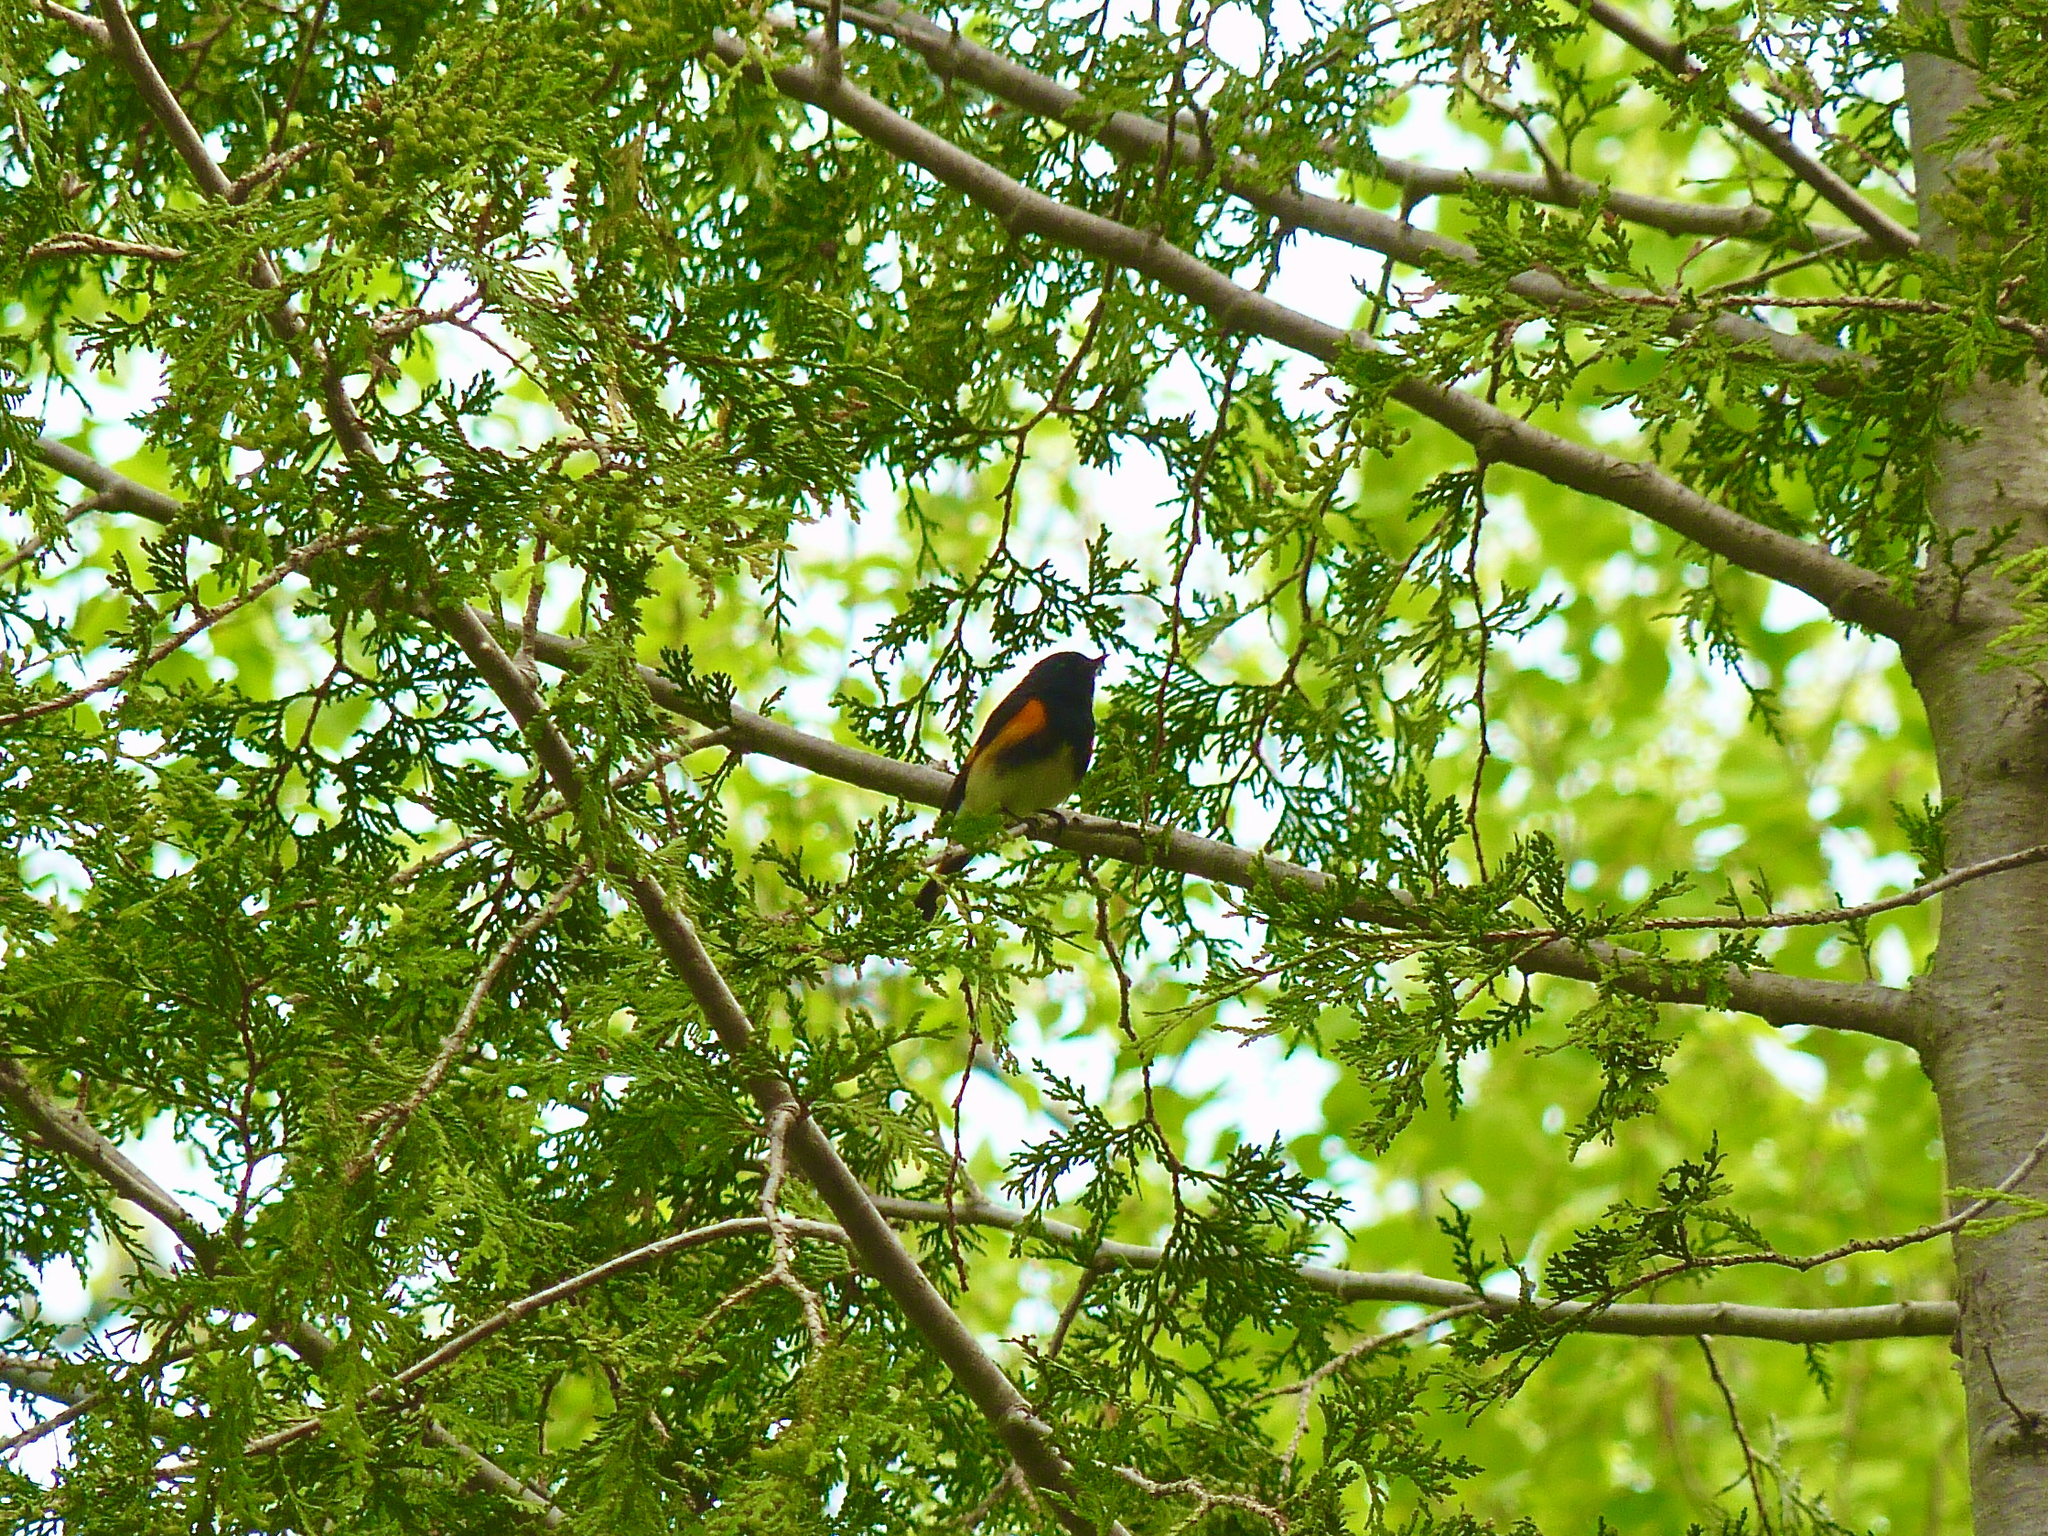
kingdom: Animalia
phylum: Chordata
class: Aves
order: Passeriformes
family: Parulidae
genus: Setophaga
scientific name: Setophaga ruticilla
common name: American redstart
